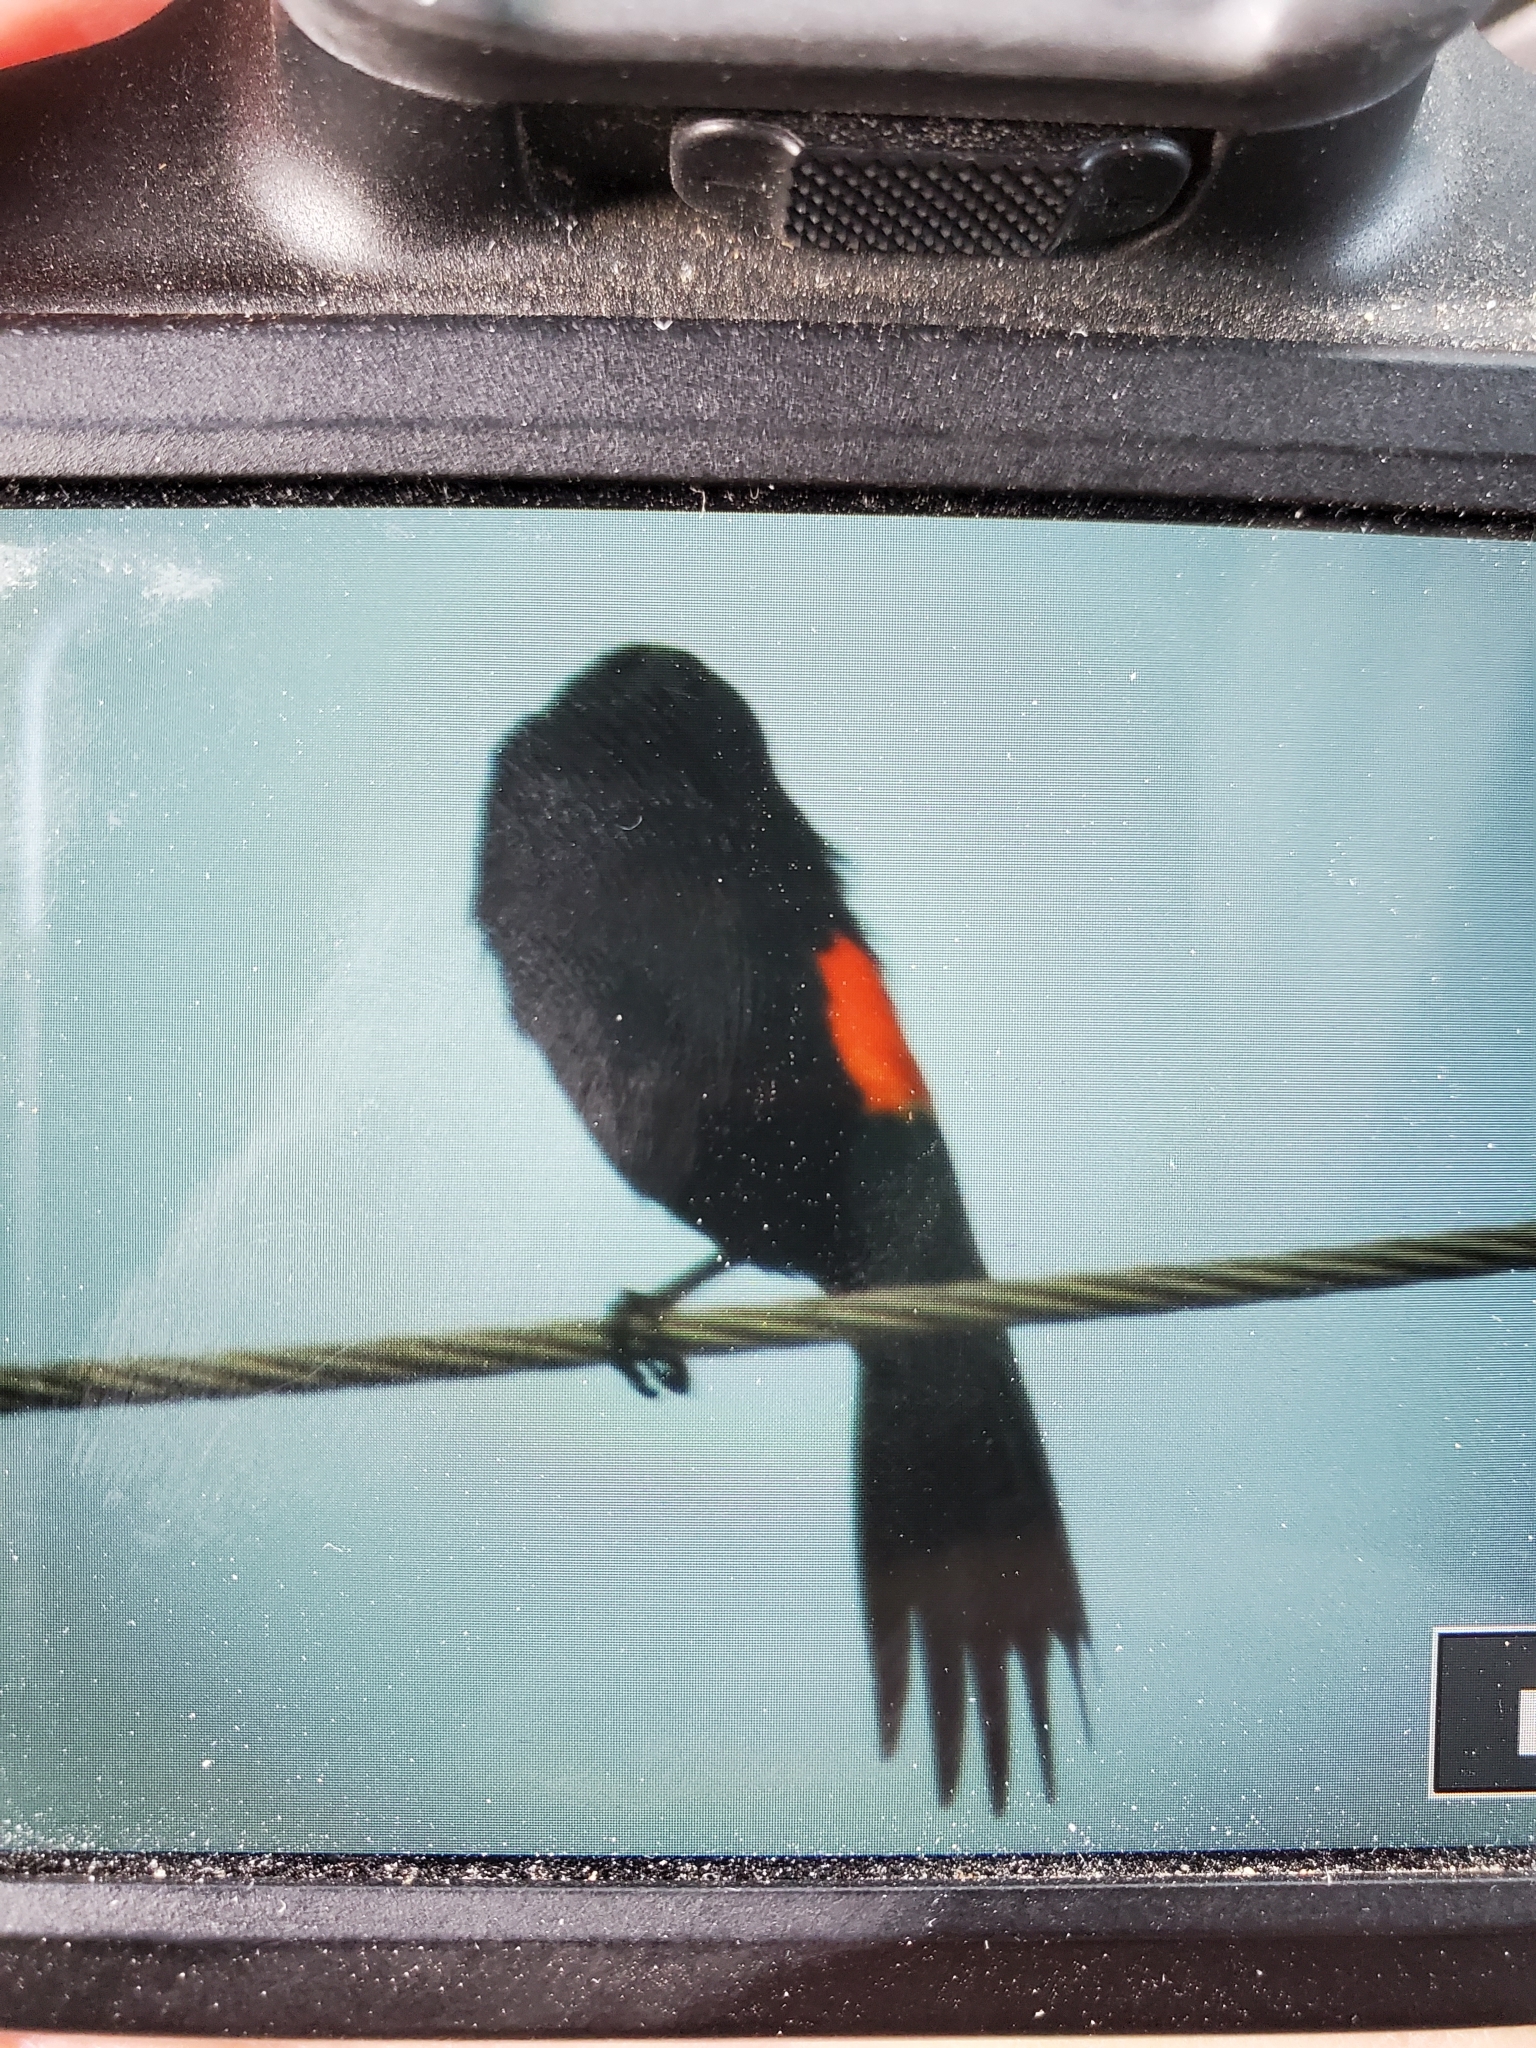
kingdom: Animalia
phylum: Chordata
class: Aves
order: Passeriformes
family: Icteridae
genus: Agelaius
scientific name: Agelaius phoeniceus
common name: Red-winged blackbird
